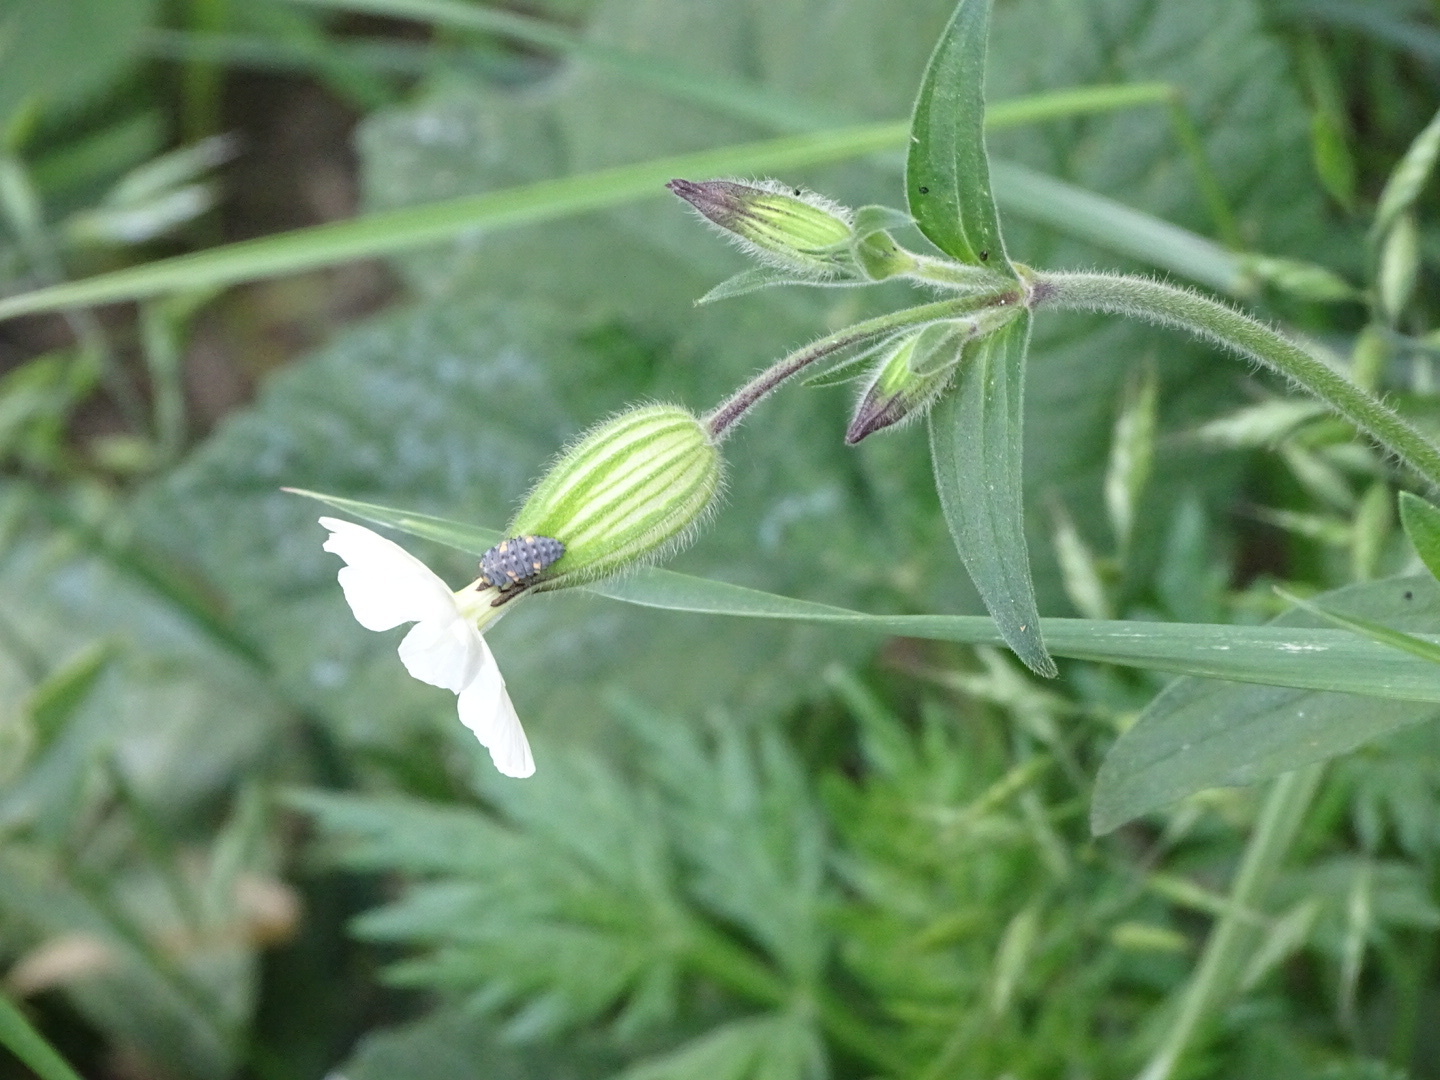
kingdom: Plantae
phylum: Tracheophyta
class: Magnoliopsida
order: Caryophyllales
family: Caryophyllaceae
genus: Silene
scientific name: Silene latifolia
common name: White campion
